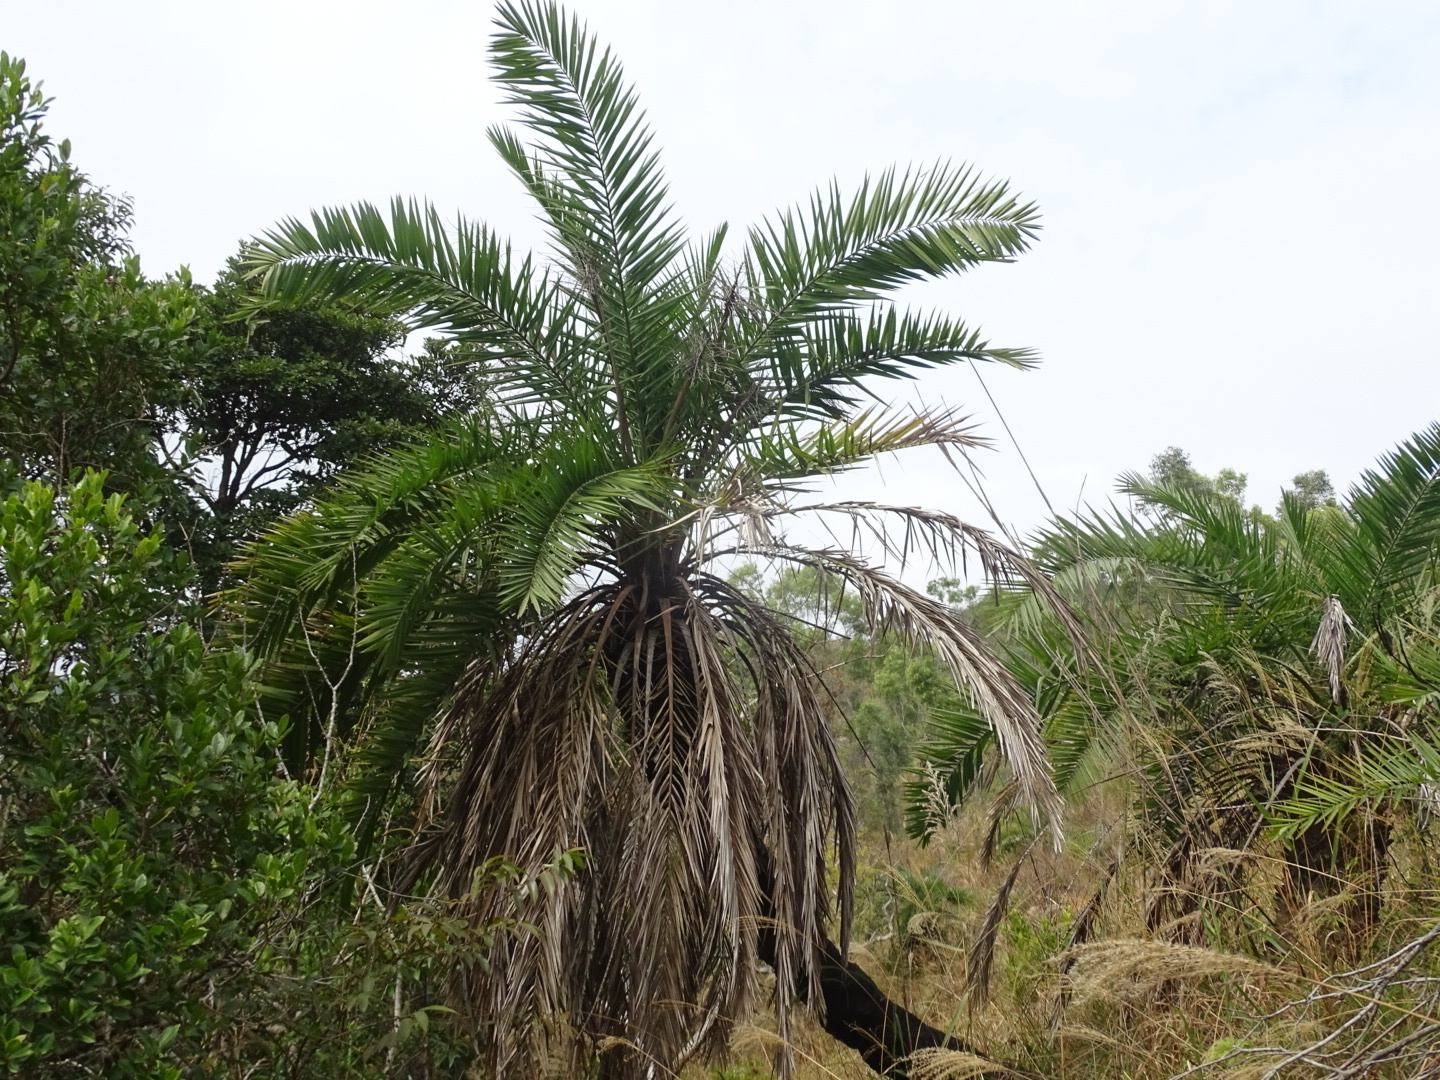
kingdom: Plantae
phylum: Tracheophyta
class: Liliopsida
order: Arecales
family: Arecaceae
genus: Phoenix
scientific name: Phoenix loureiroi
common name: Loureiro's palm
